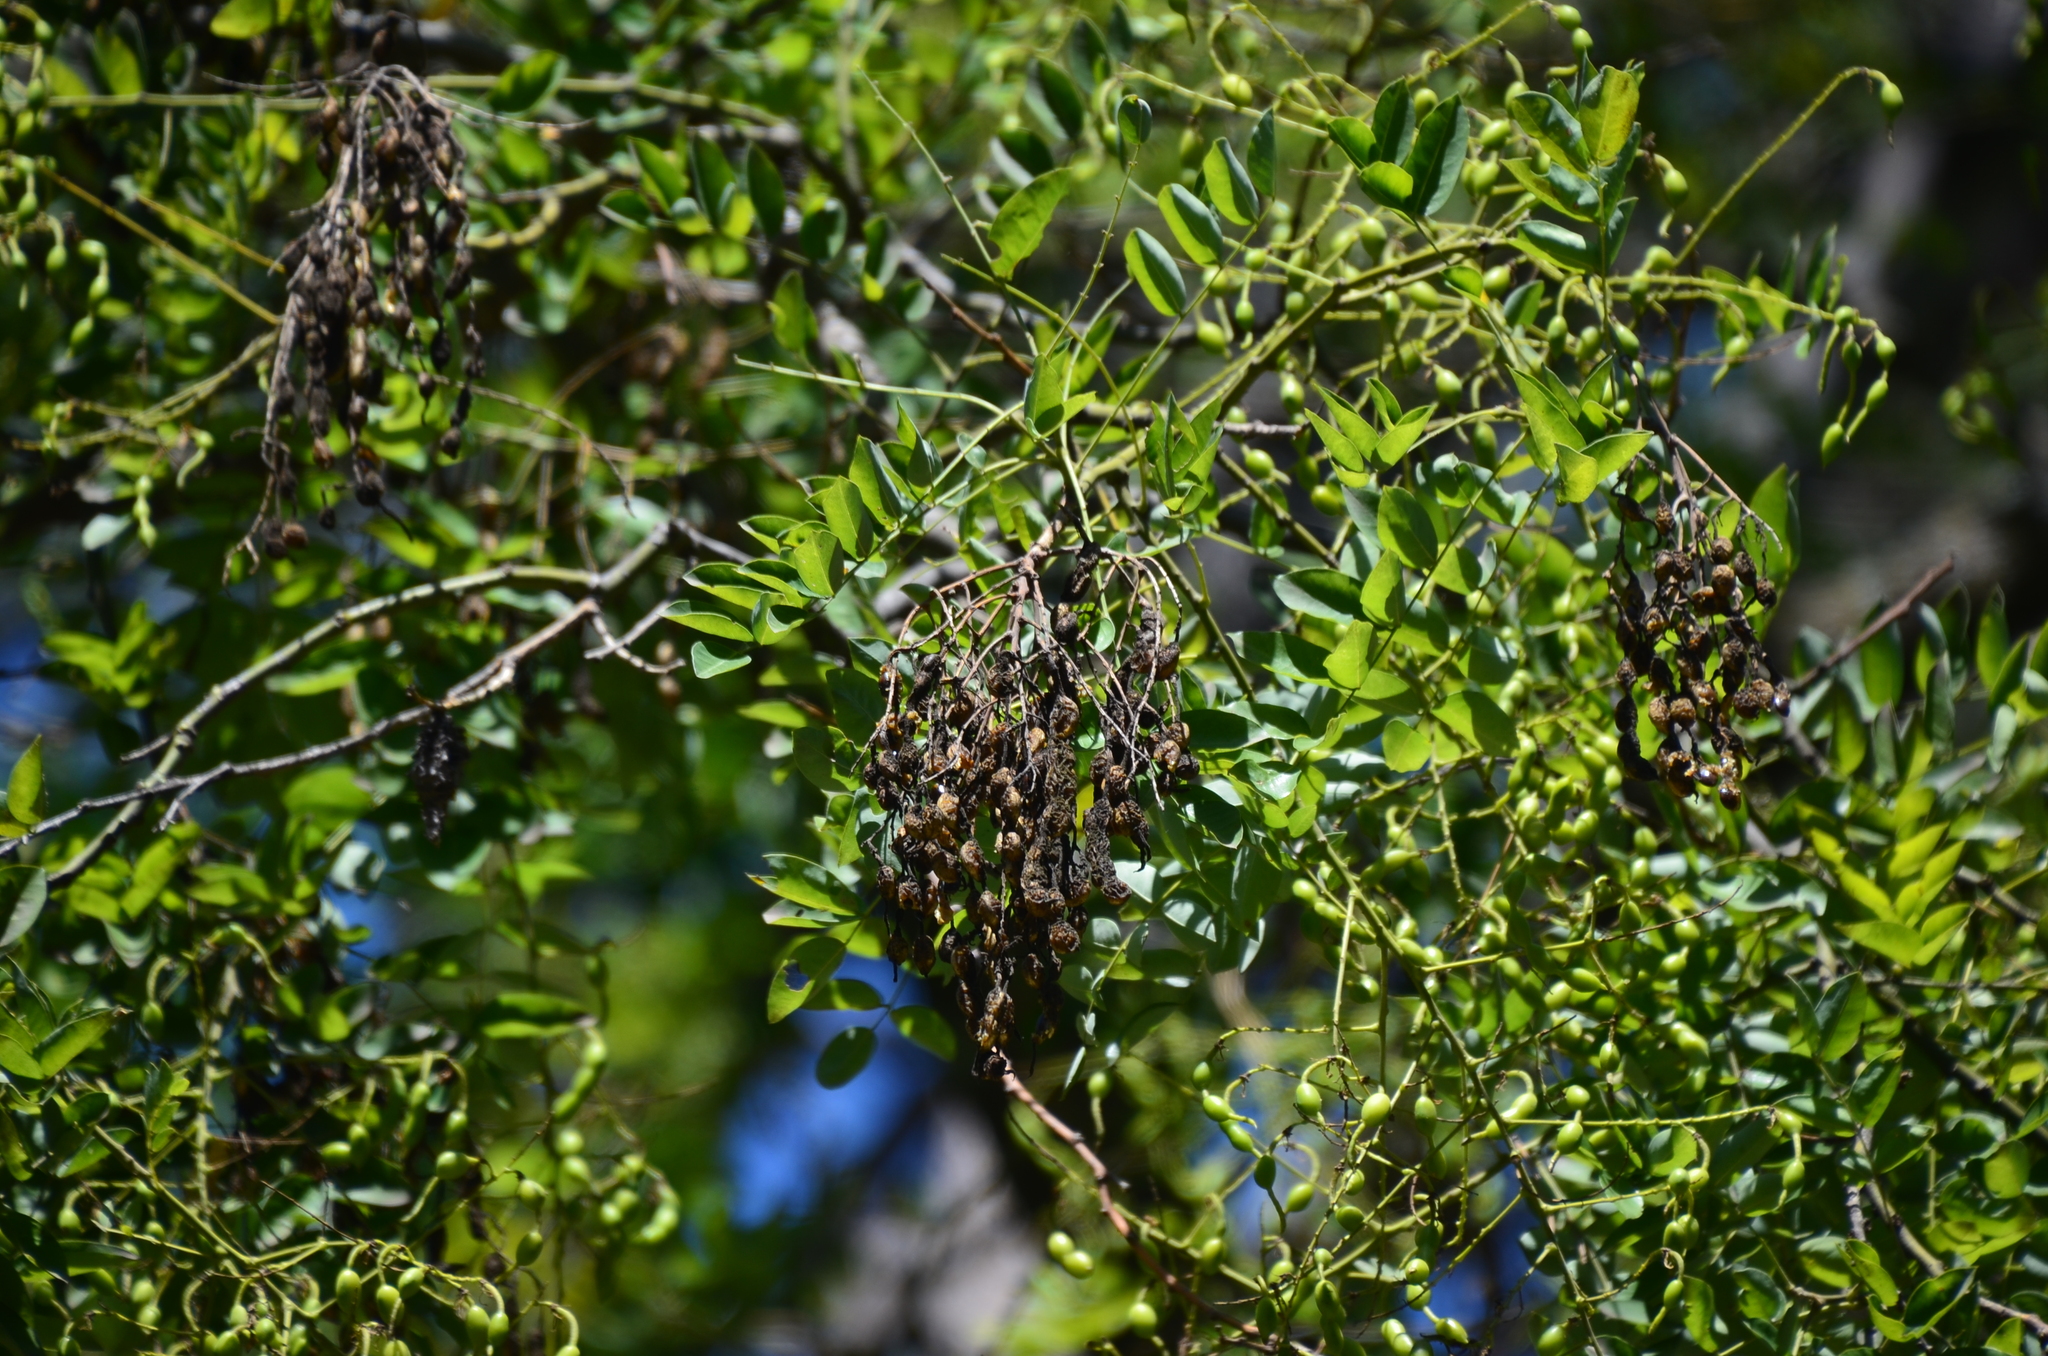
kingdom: Plantae
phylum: Tracheophyta
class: Magnoliopsida
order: Fabales
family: Fabaceae
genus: Styphnolobium
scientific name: Styphnolobium japonicum
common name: Chinese scholartree
